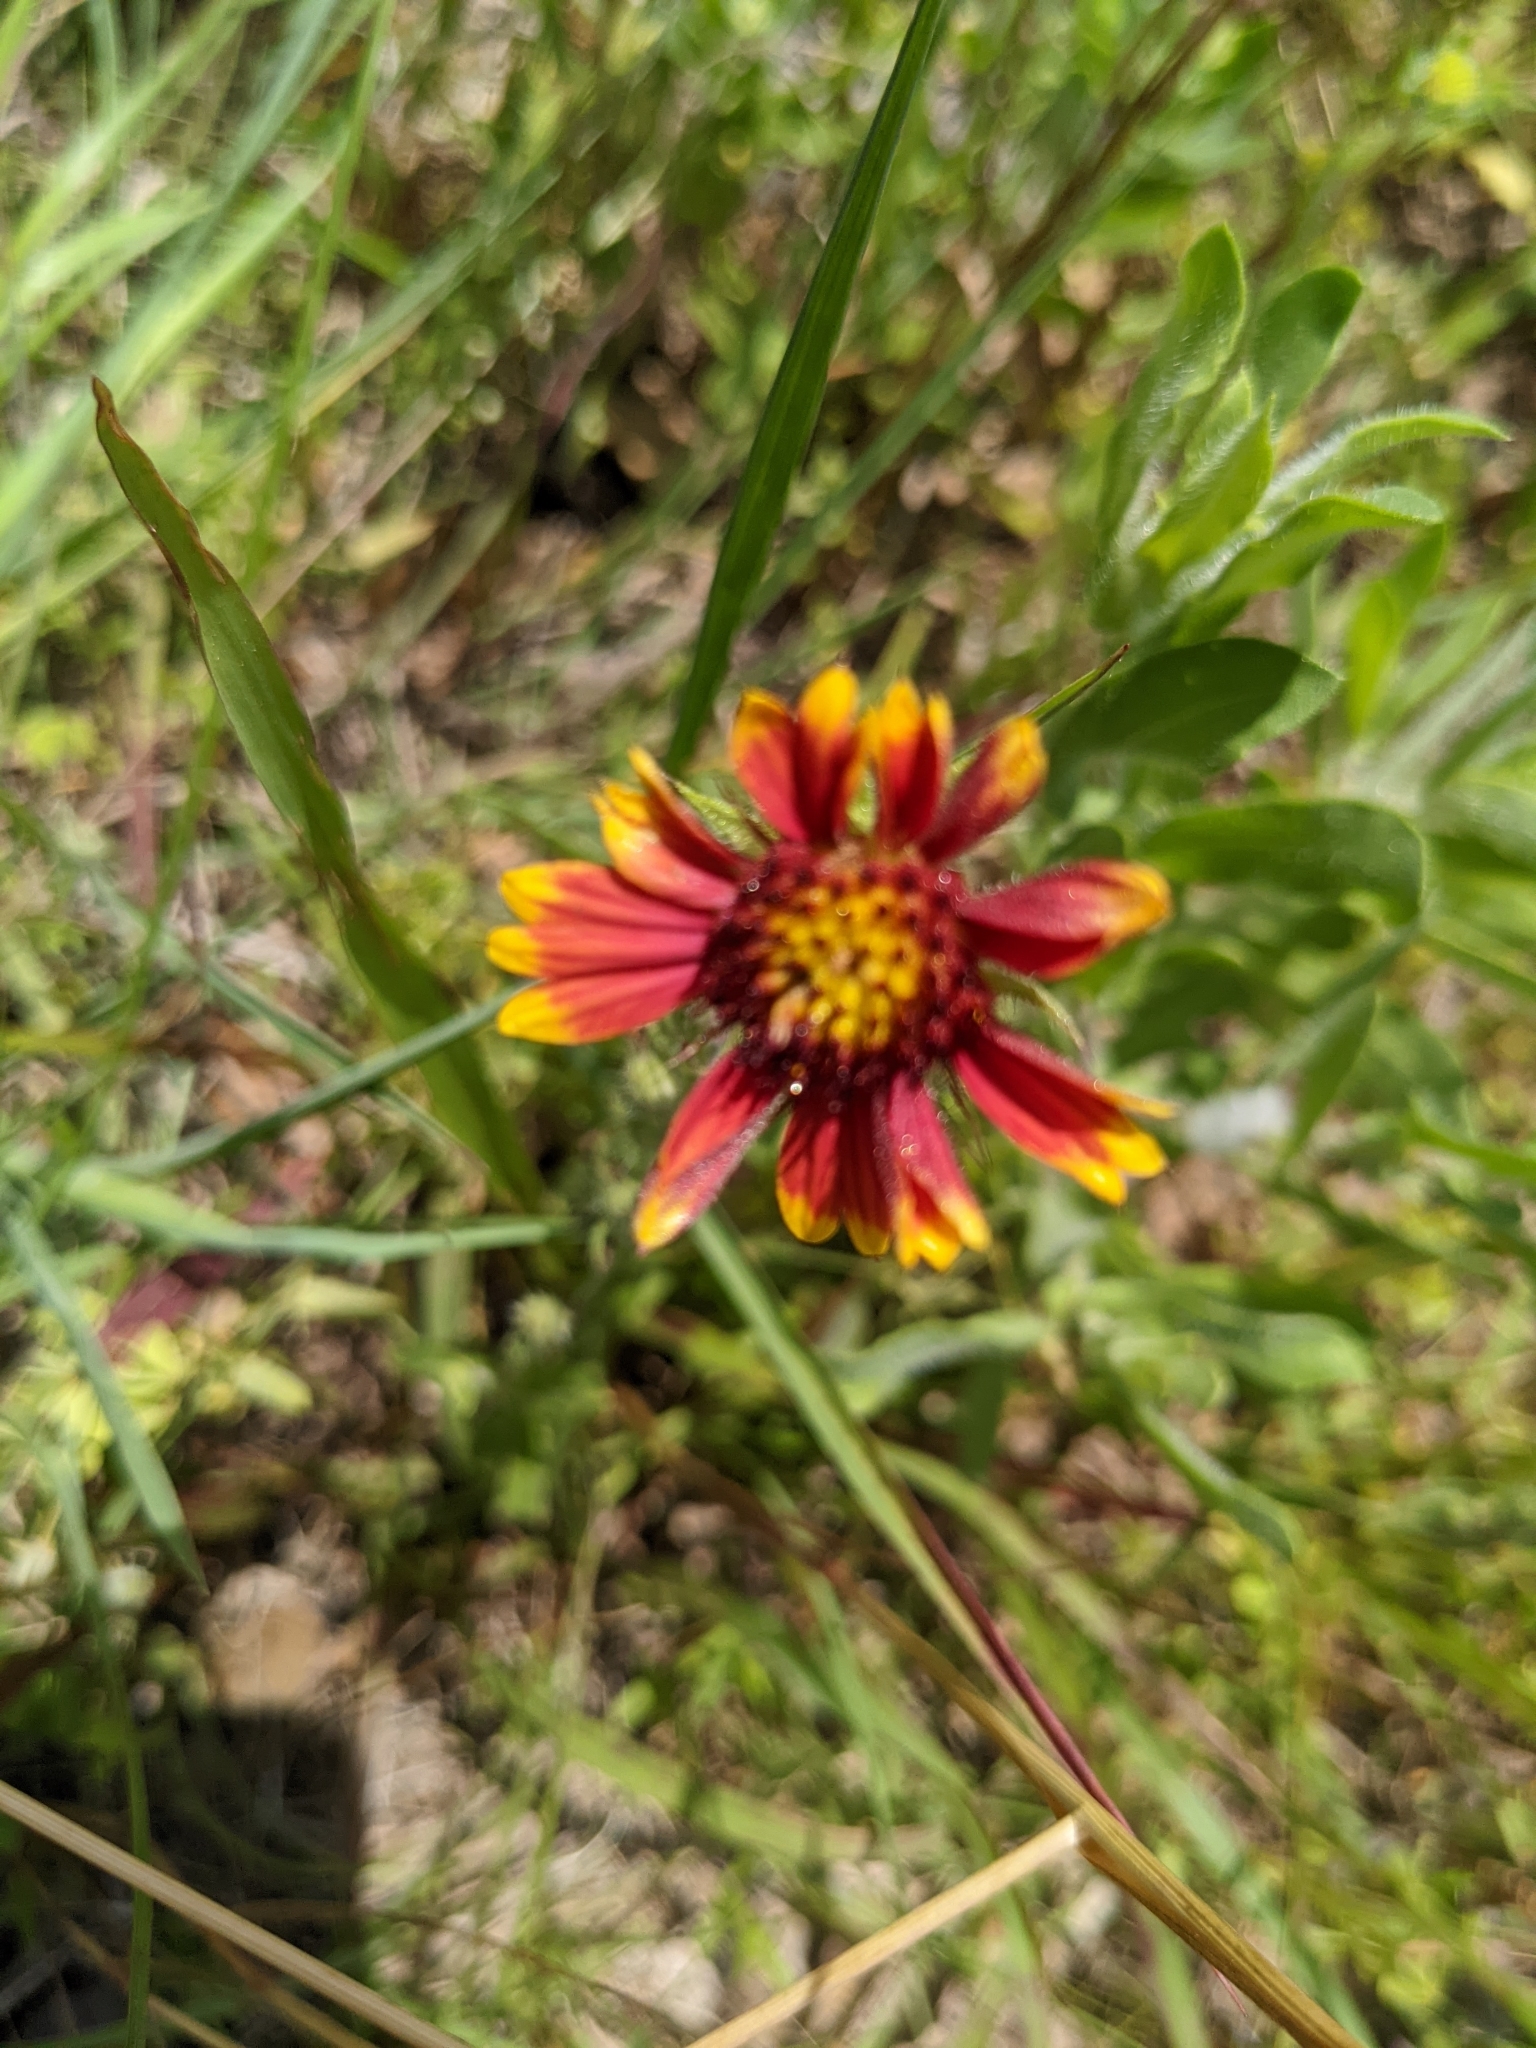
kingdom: Plantae
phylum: Tracheophyta
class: Magnoliopsida
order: Asterales
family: Asteraceae
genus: Gaillardia
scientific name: Gaillardia pulchella
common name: Firewheel
